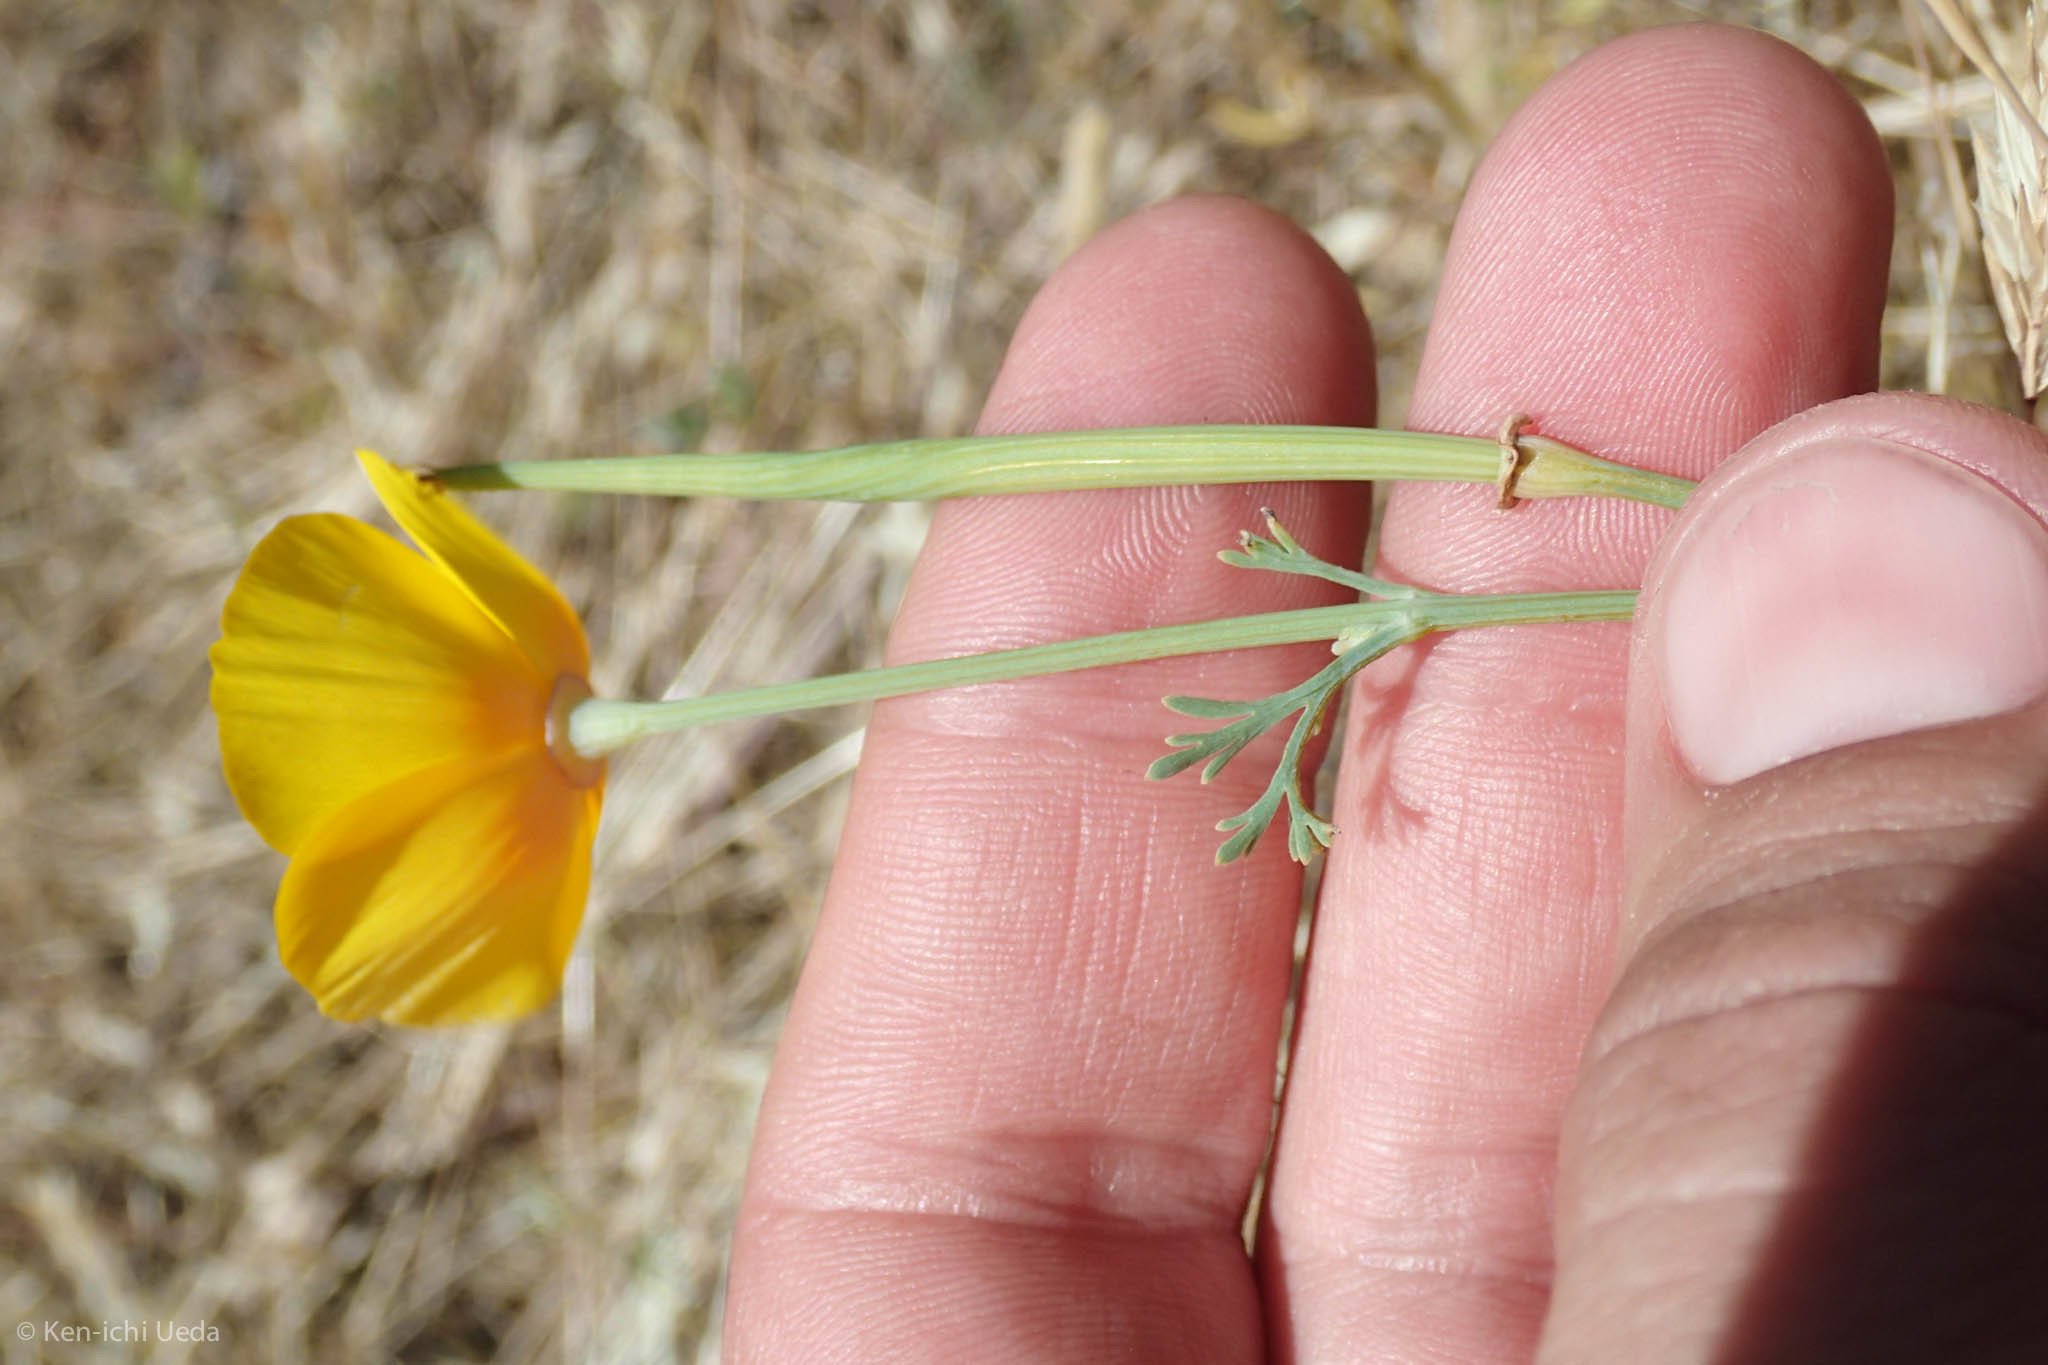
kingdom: Plantae
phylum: Tracheophyta
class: Magnoliopsida
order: Ranunculales
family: Papaveraceae
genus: Eschscholzia
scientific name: Eschscholzia californica
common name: California poppy
